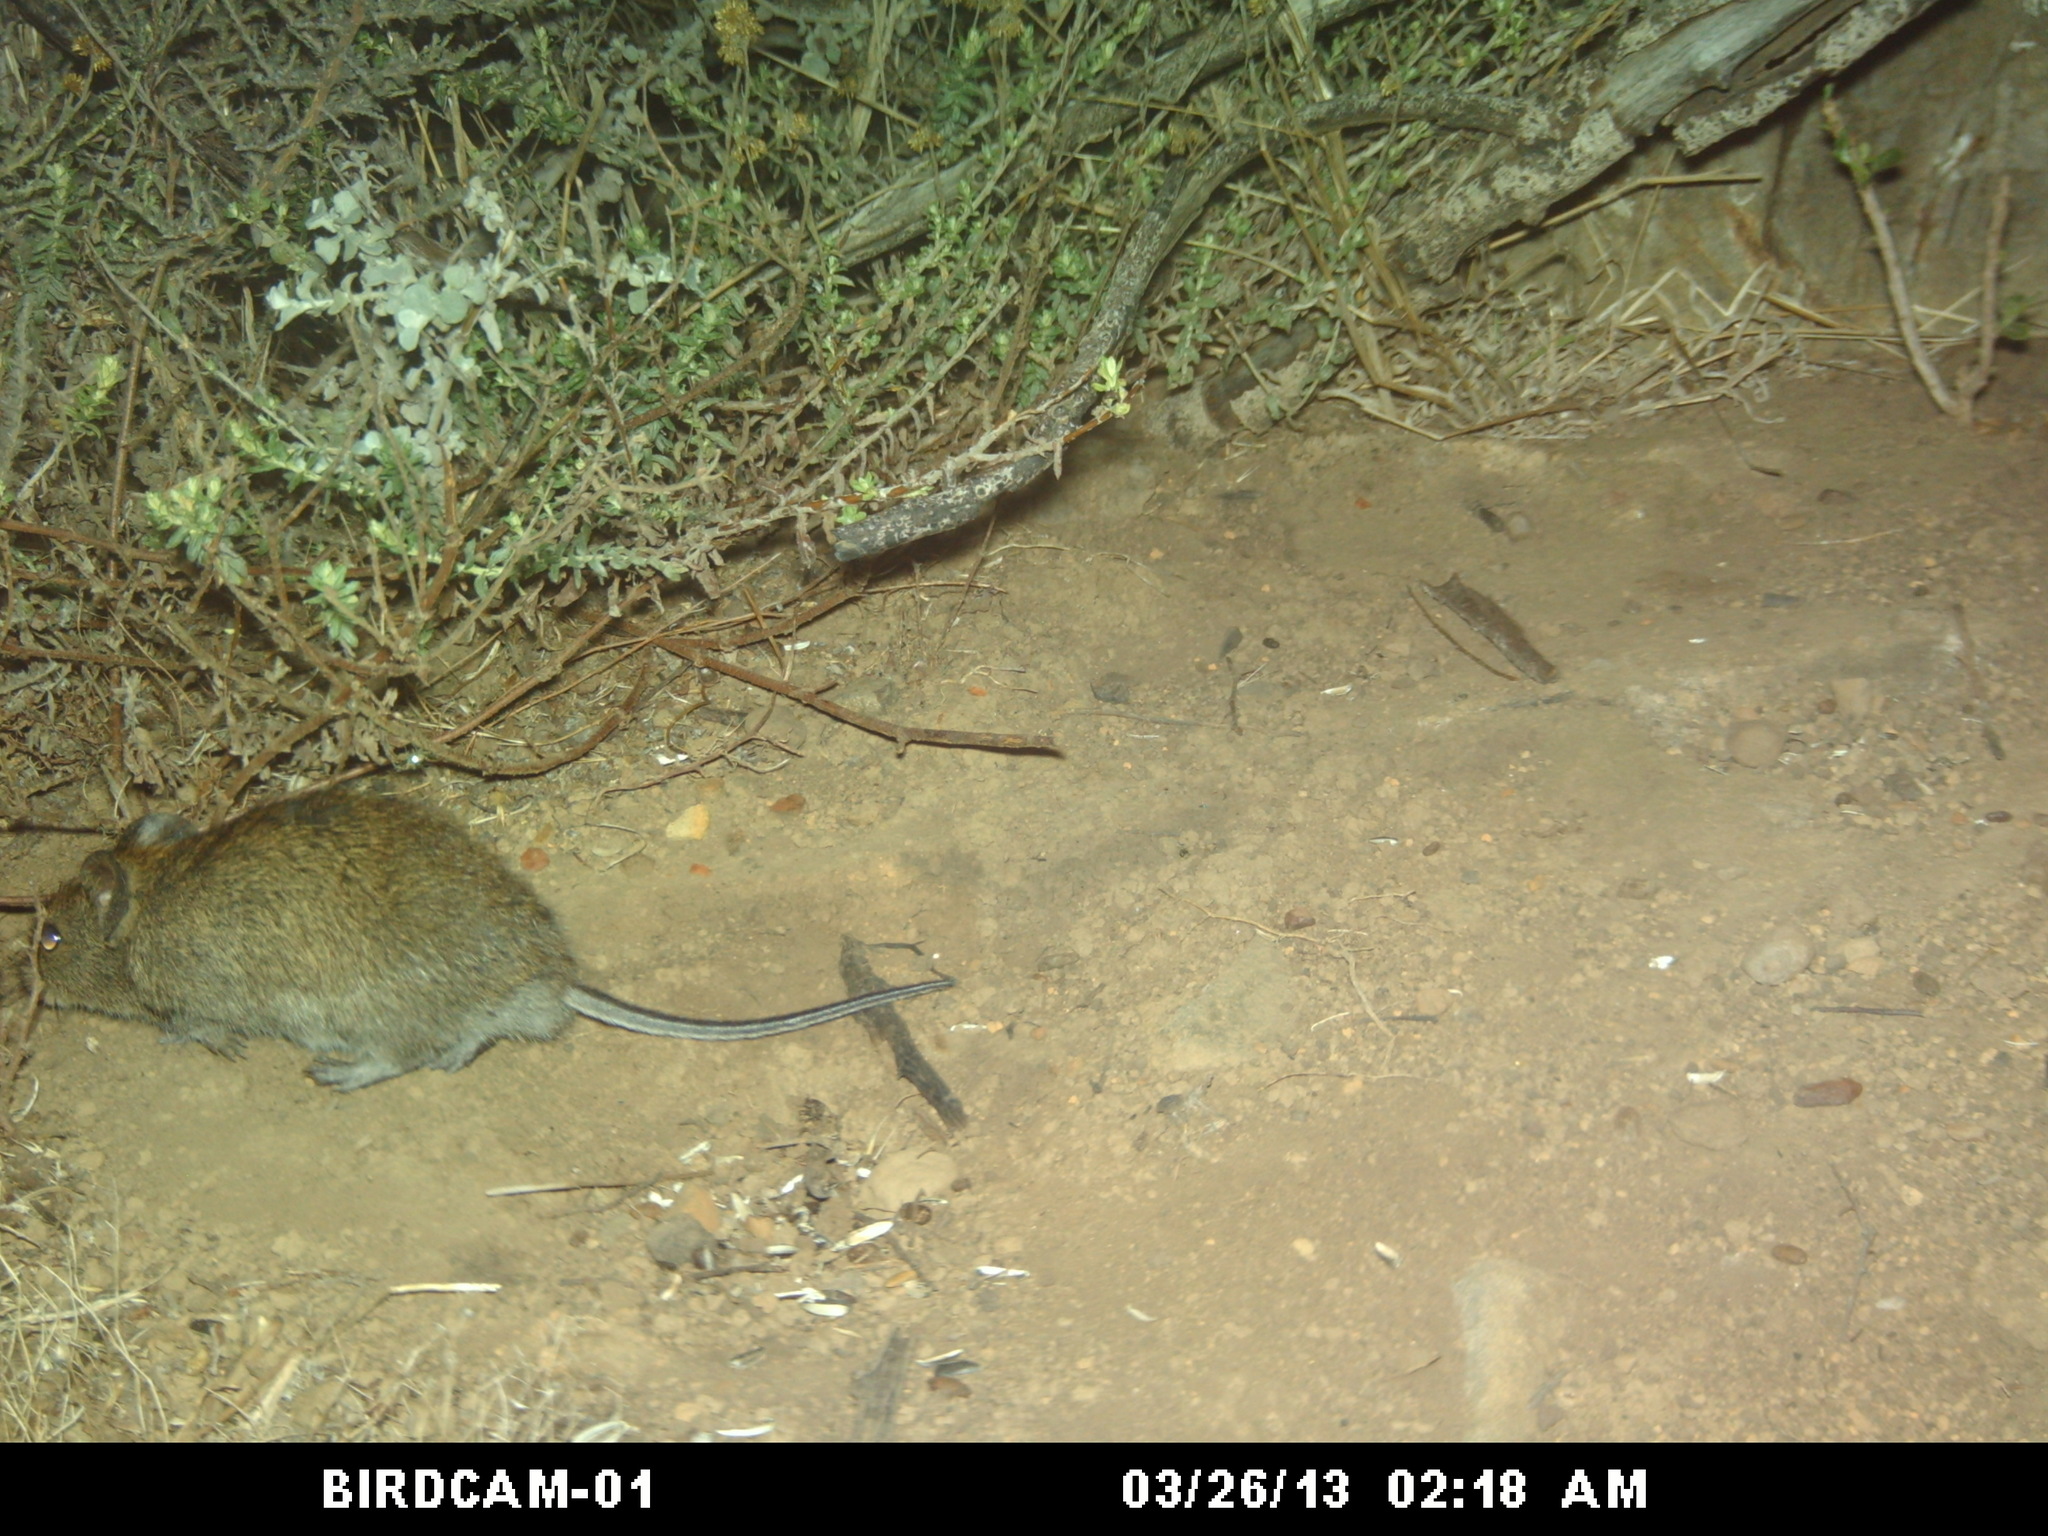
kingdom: Animalia
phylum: Chordata
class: Mammalia
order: Rodentia
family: Muridae
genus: Otomys
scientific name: Otomys irroratus
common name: Southern african vlei rat
